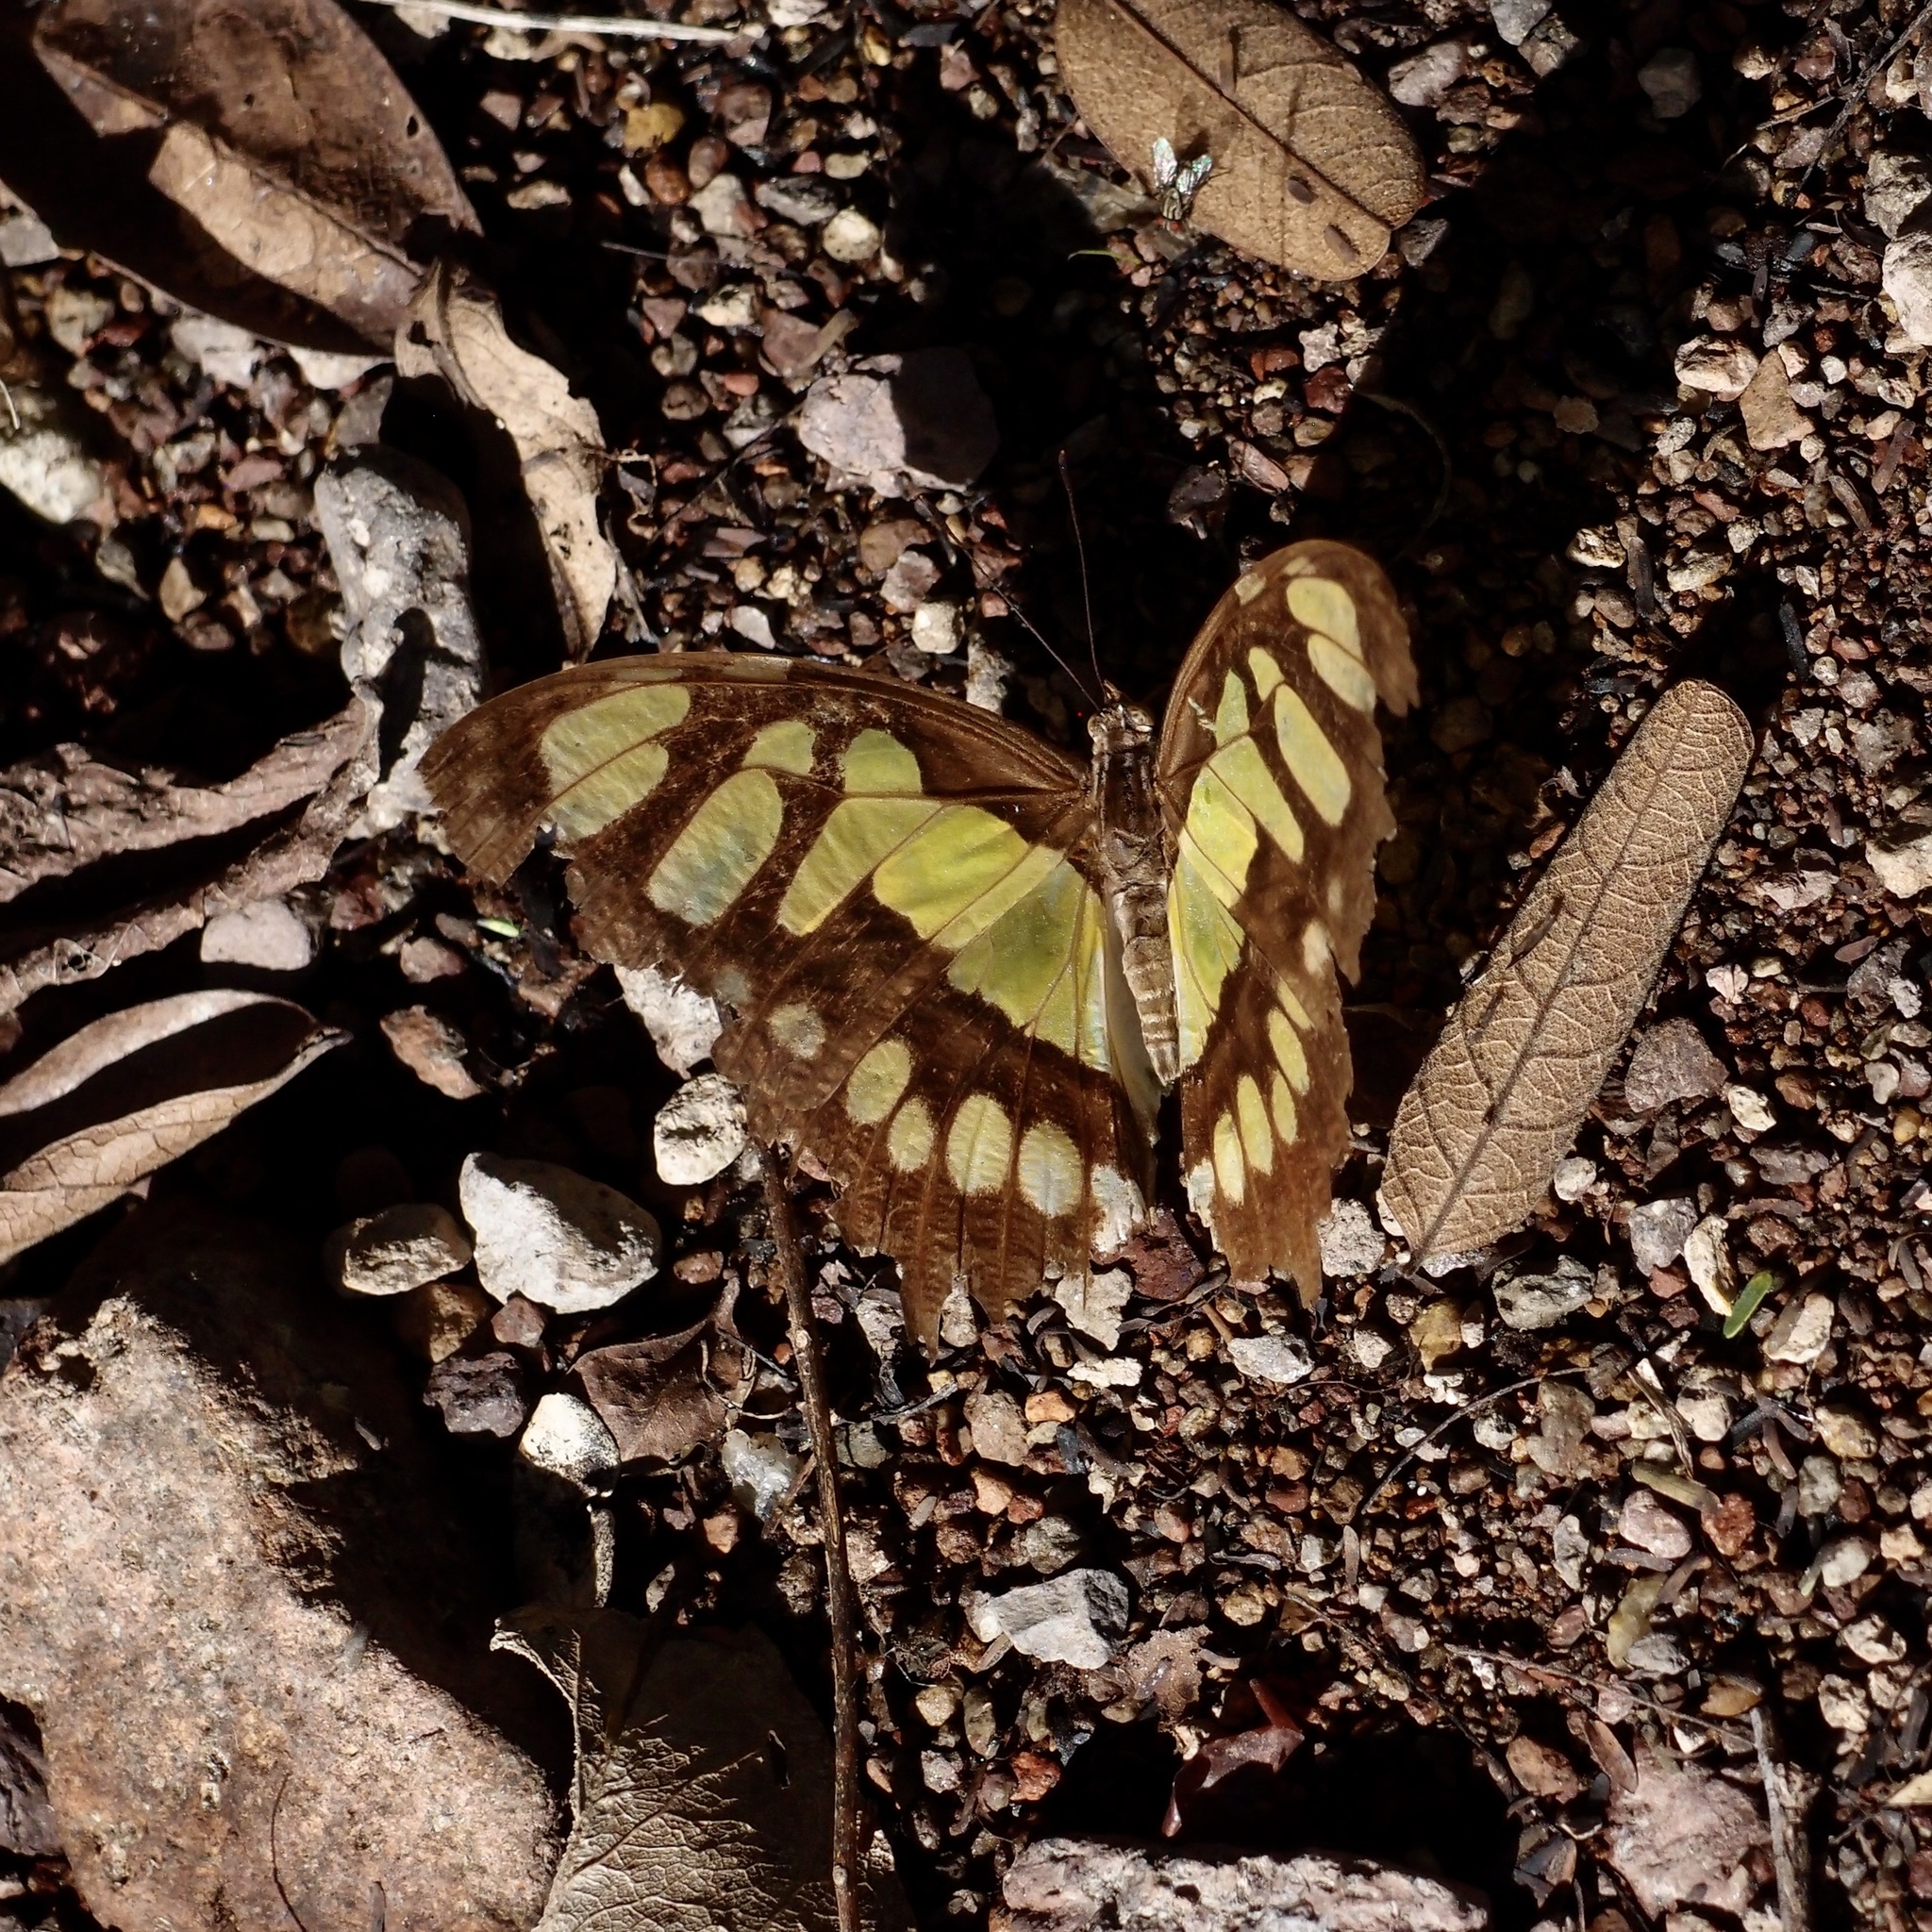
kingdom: Animalia
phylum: Arthropoda
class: Insecta
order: Lepidoptera
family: Nymphalidae
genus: Siproeta
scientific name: Siproeta stelenes
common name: Malachite
